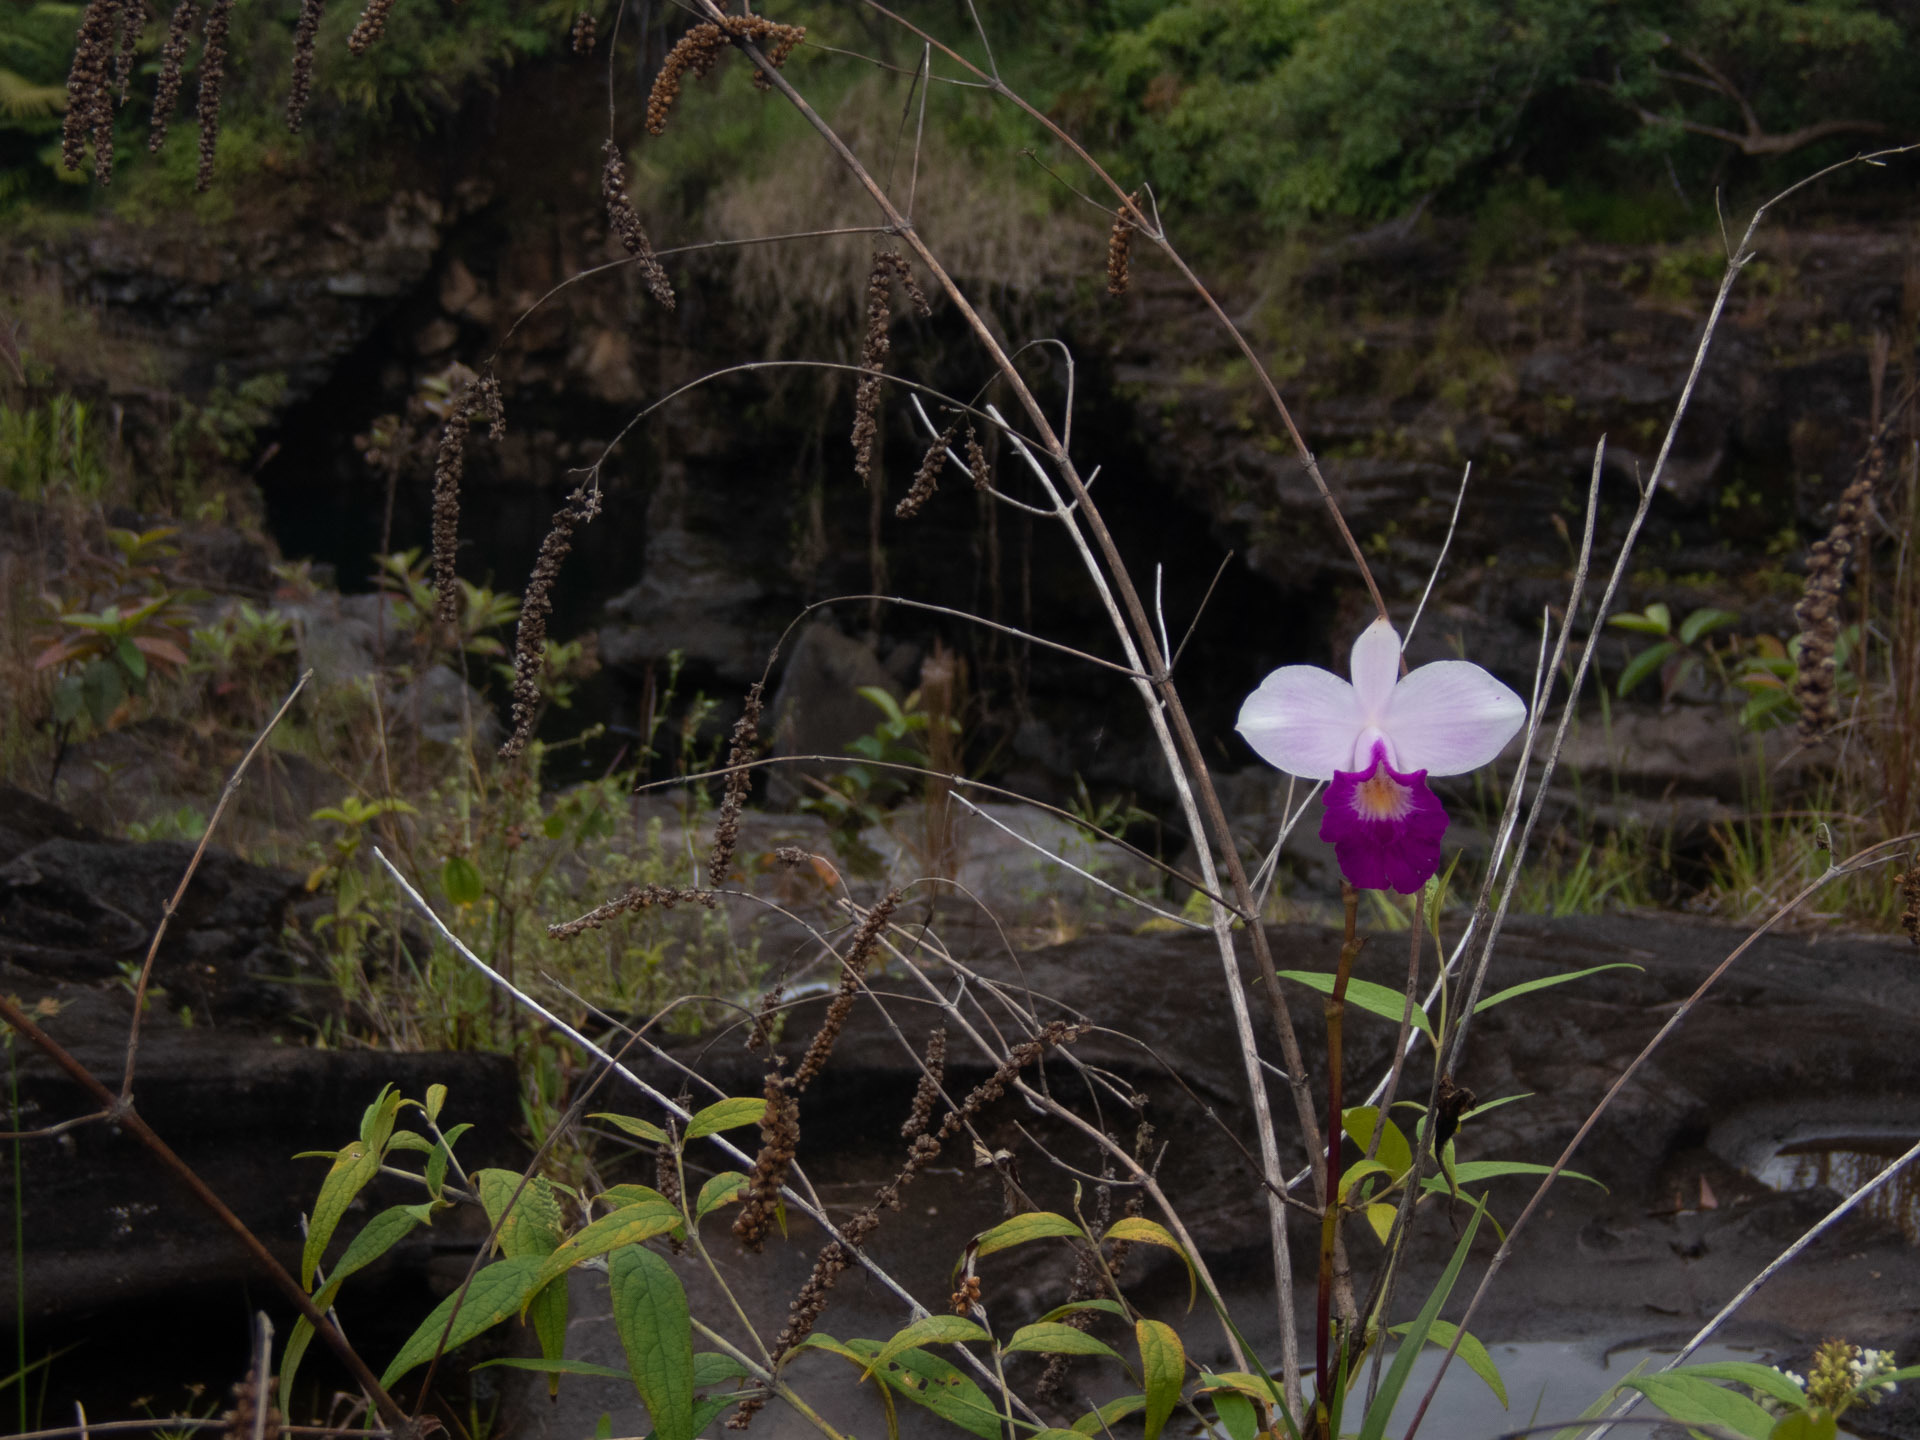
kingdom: Plantae
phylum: Tracheophyta
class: Liliopsida
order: Asparagales
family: Orchidaceae
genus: Arundina
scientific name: Arundina graminifolia
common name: Bamboo orchid
